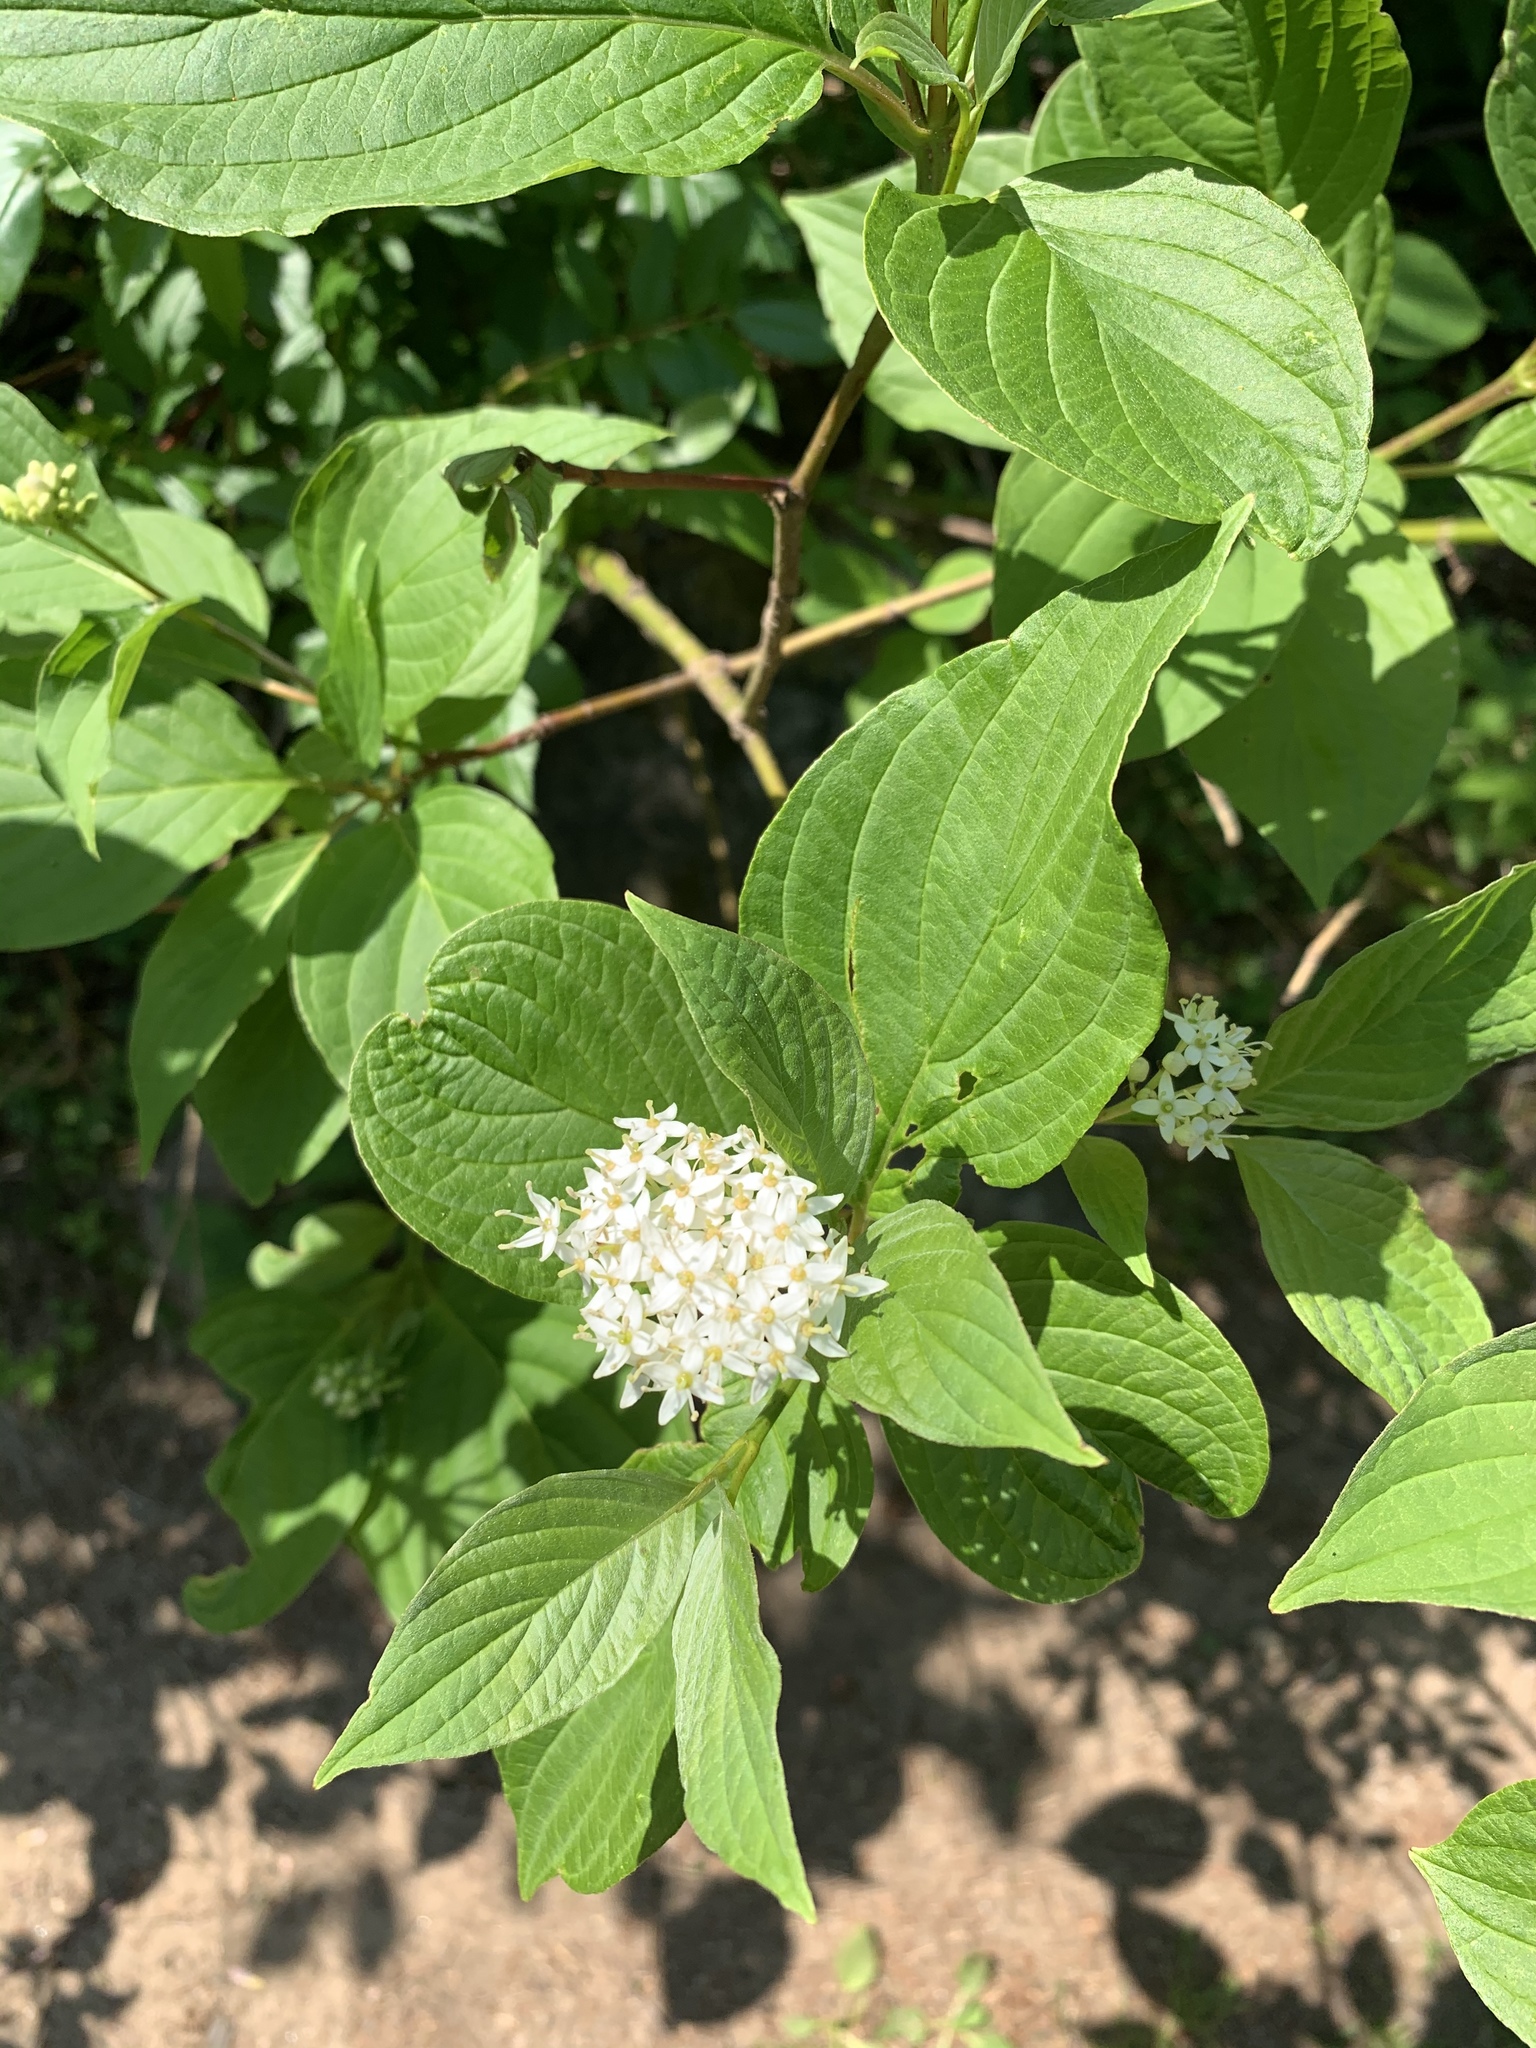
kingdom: Plantae
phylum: Tracheophyta
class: Magnoliopsida
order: Cornales
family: Cornaceae
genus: Cornus
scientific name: Cornus sericea
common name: Red-osier dogwood
